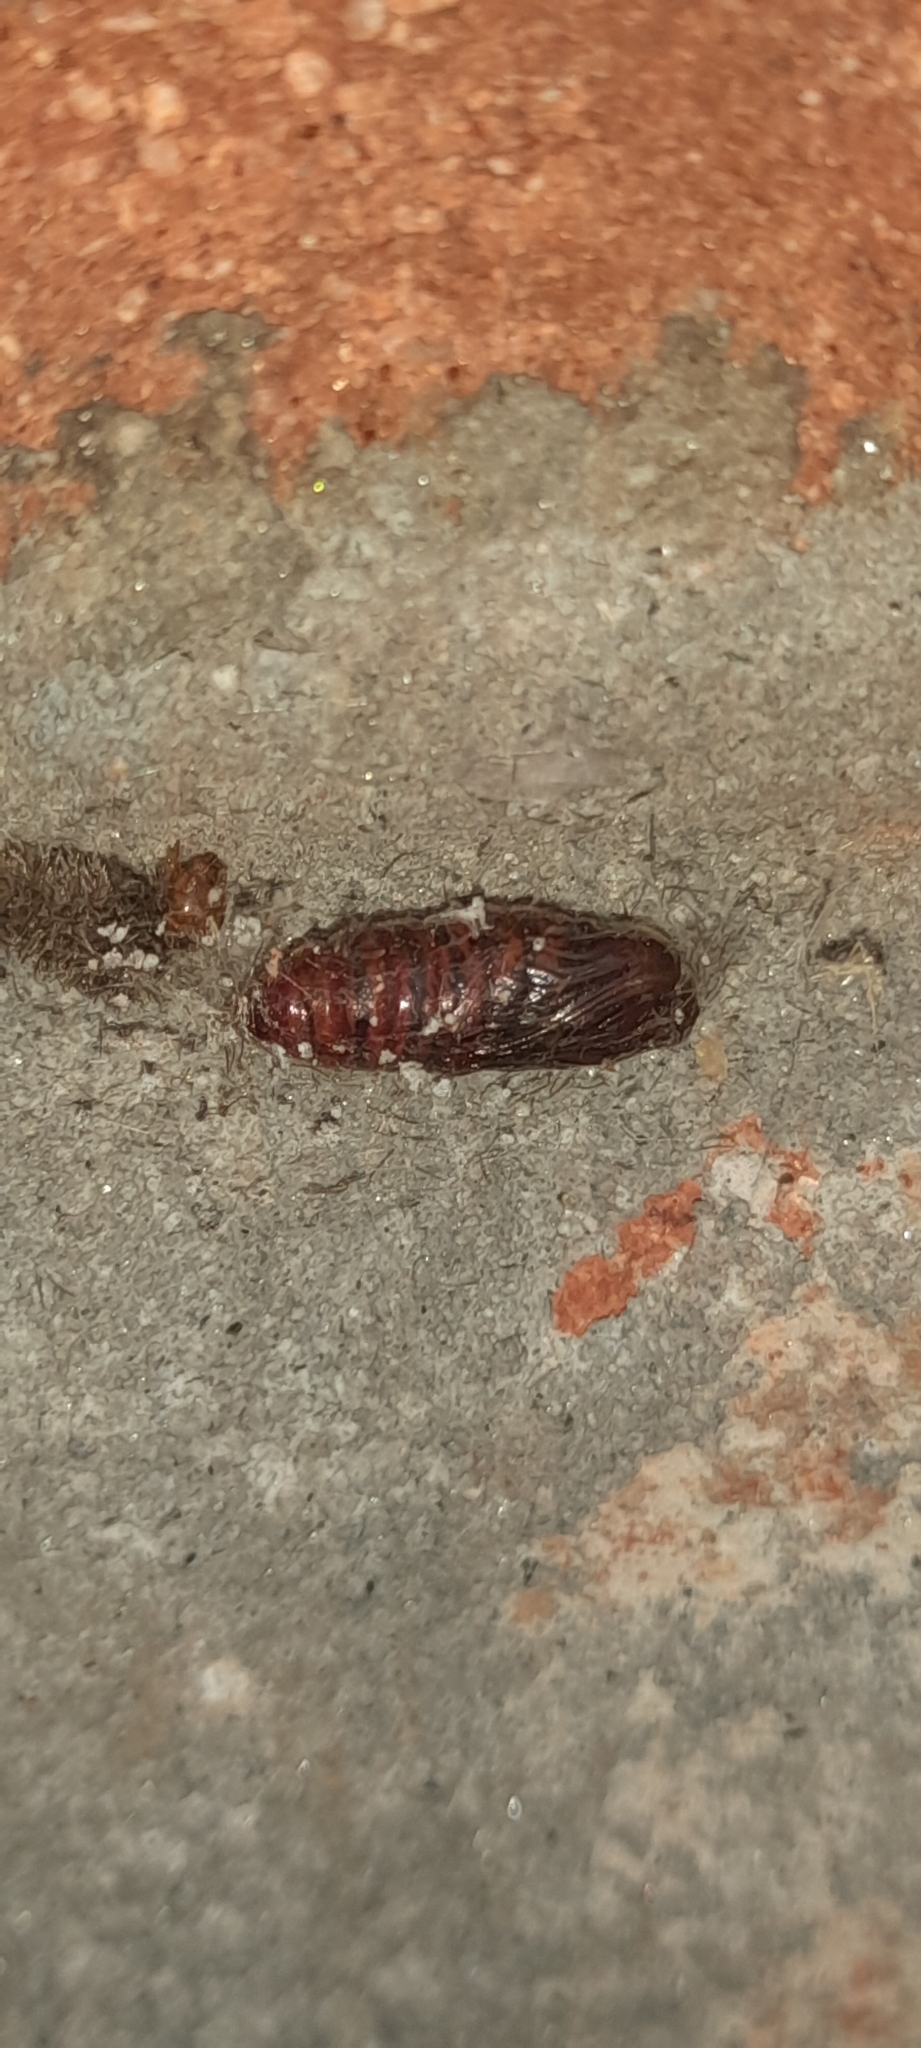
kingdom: Animalia
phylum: Arthropoda
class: Insecta
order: Lepidoptera
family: Erebidae
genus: Amata
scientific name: Amata passalis
